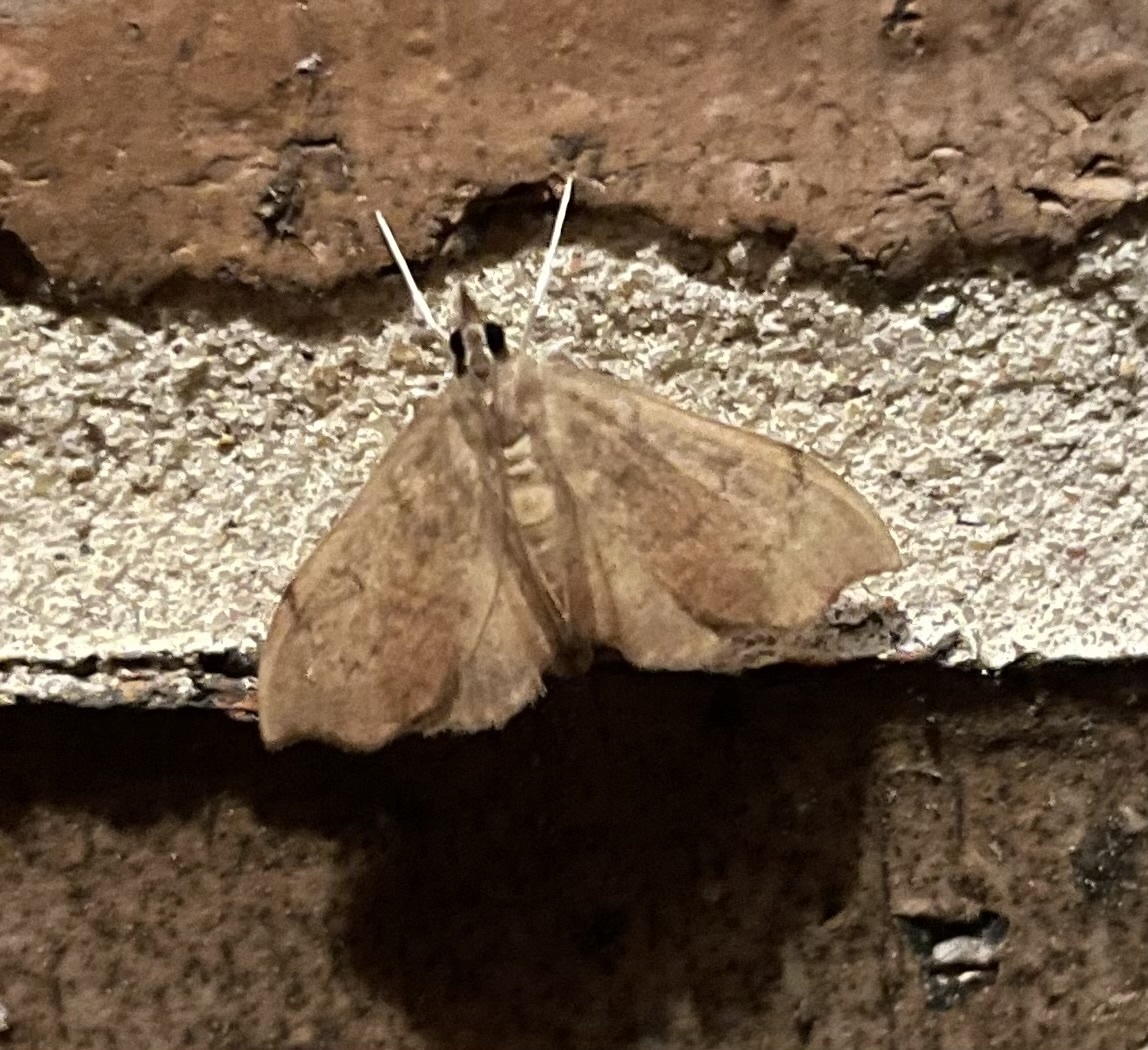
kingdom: Animalia
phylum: Arthropoda
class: Insecta
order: Lepidoptera
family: Crambidae
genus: Sericoplaga
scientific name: Sericoplaga externalis
